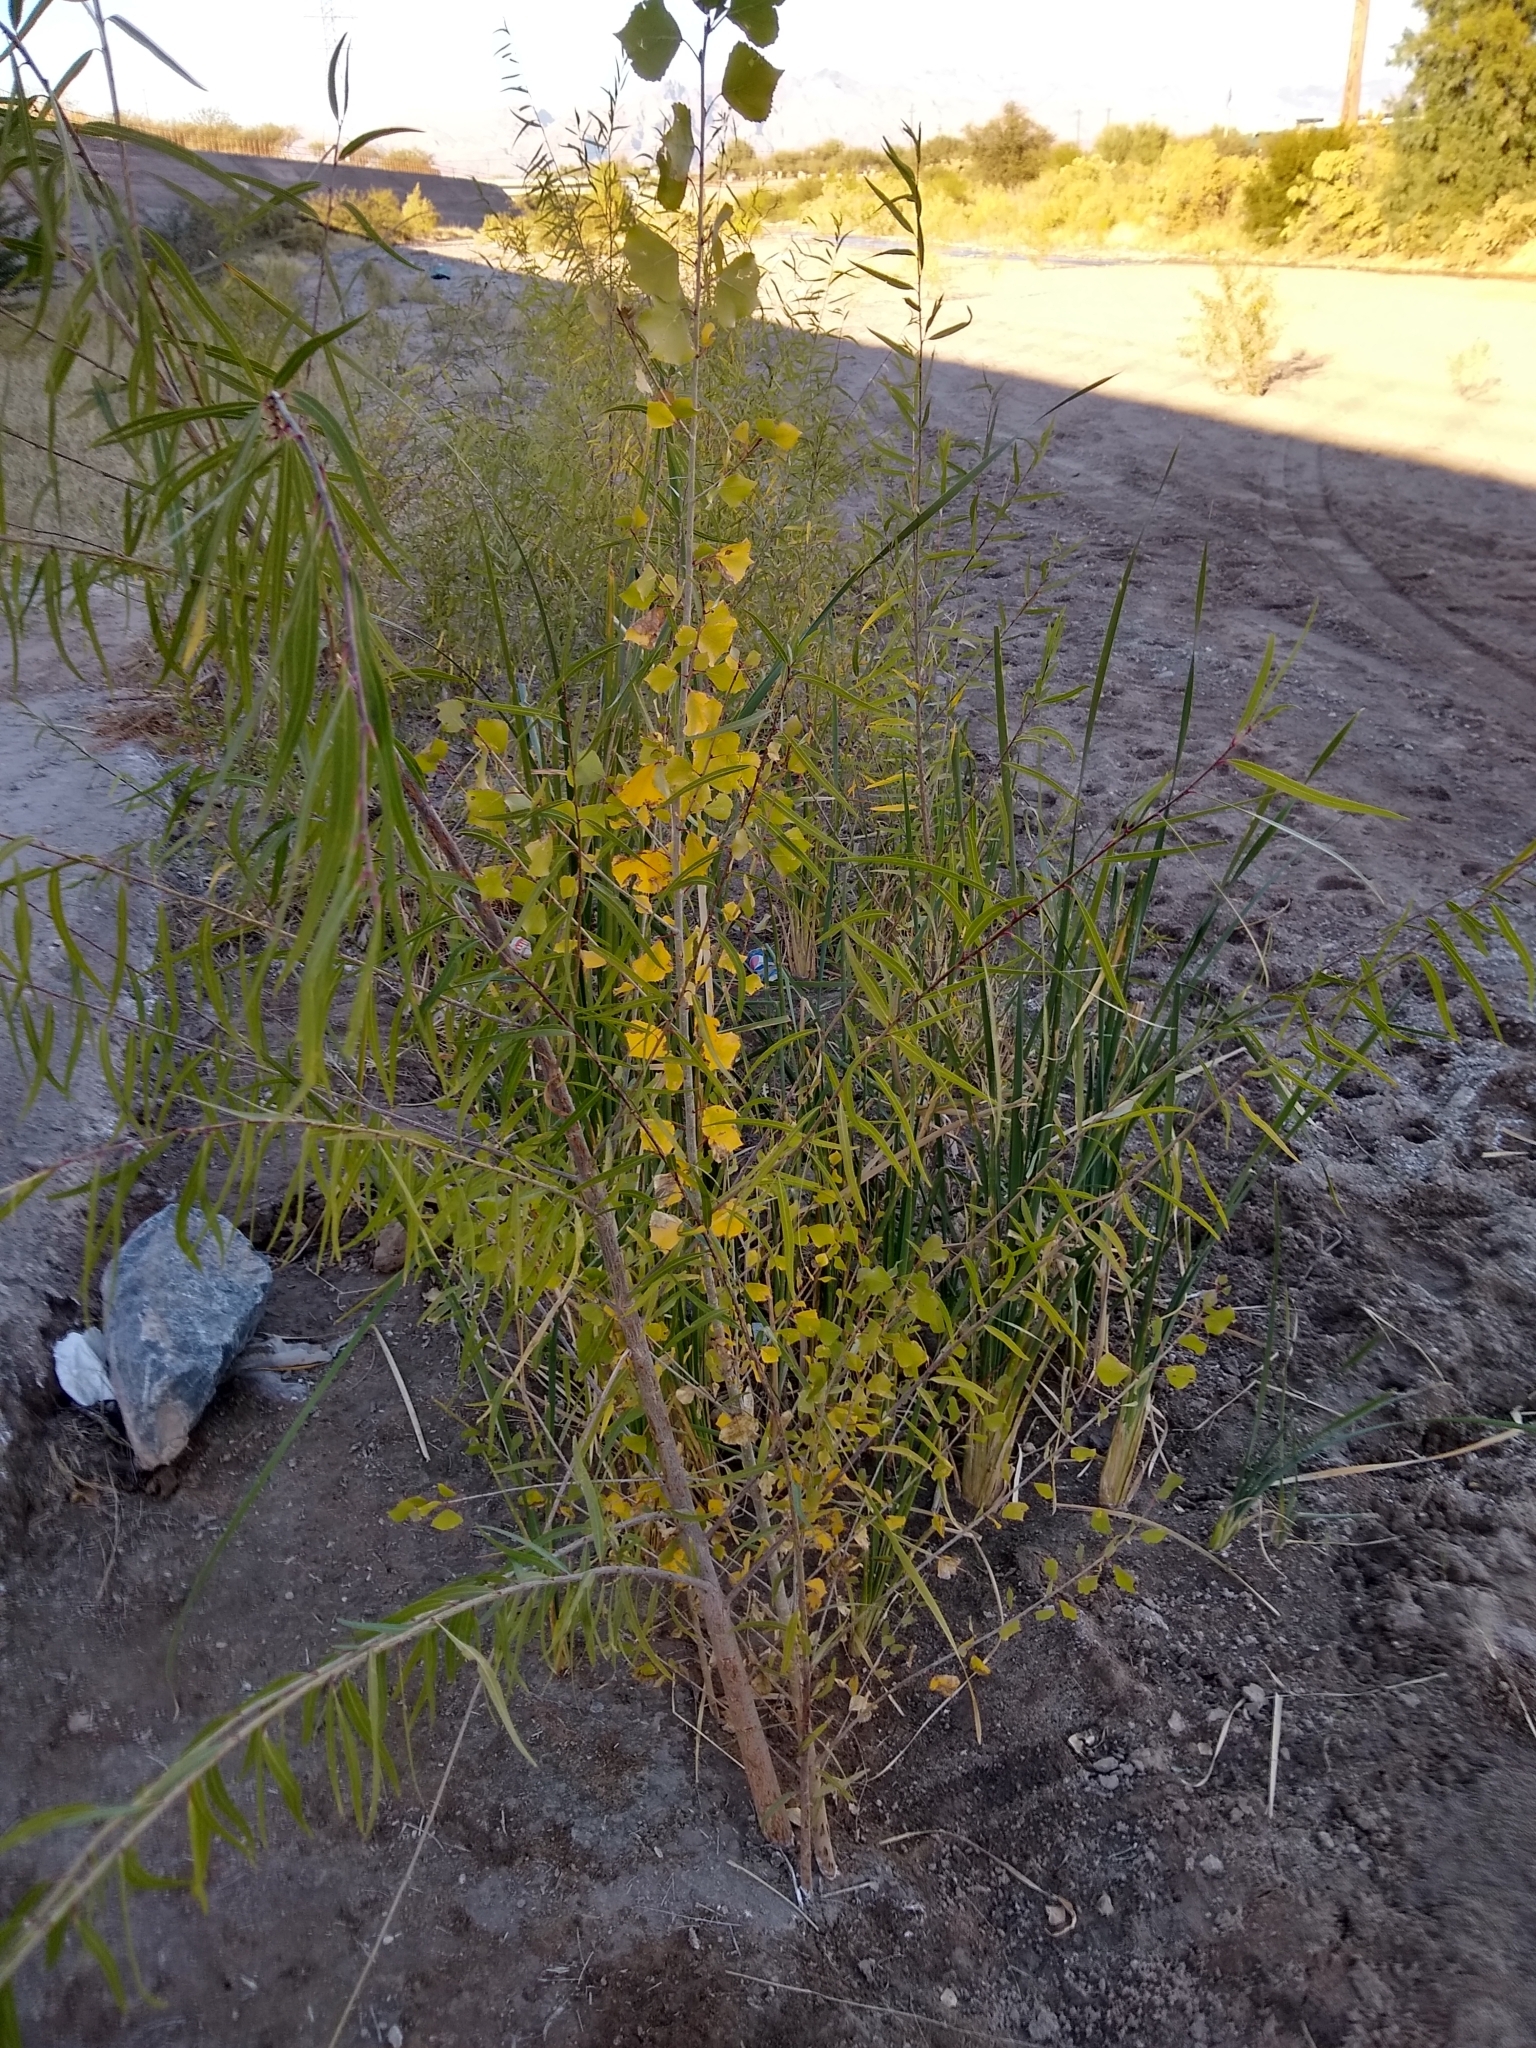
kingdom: Plantae
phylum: Tracheophyta
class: Magnoliopsida
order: Malpighiales
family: Salicaceae
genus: Populus
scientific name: Populus fremontii
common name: Fremont's cottonwood
